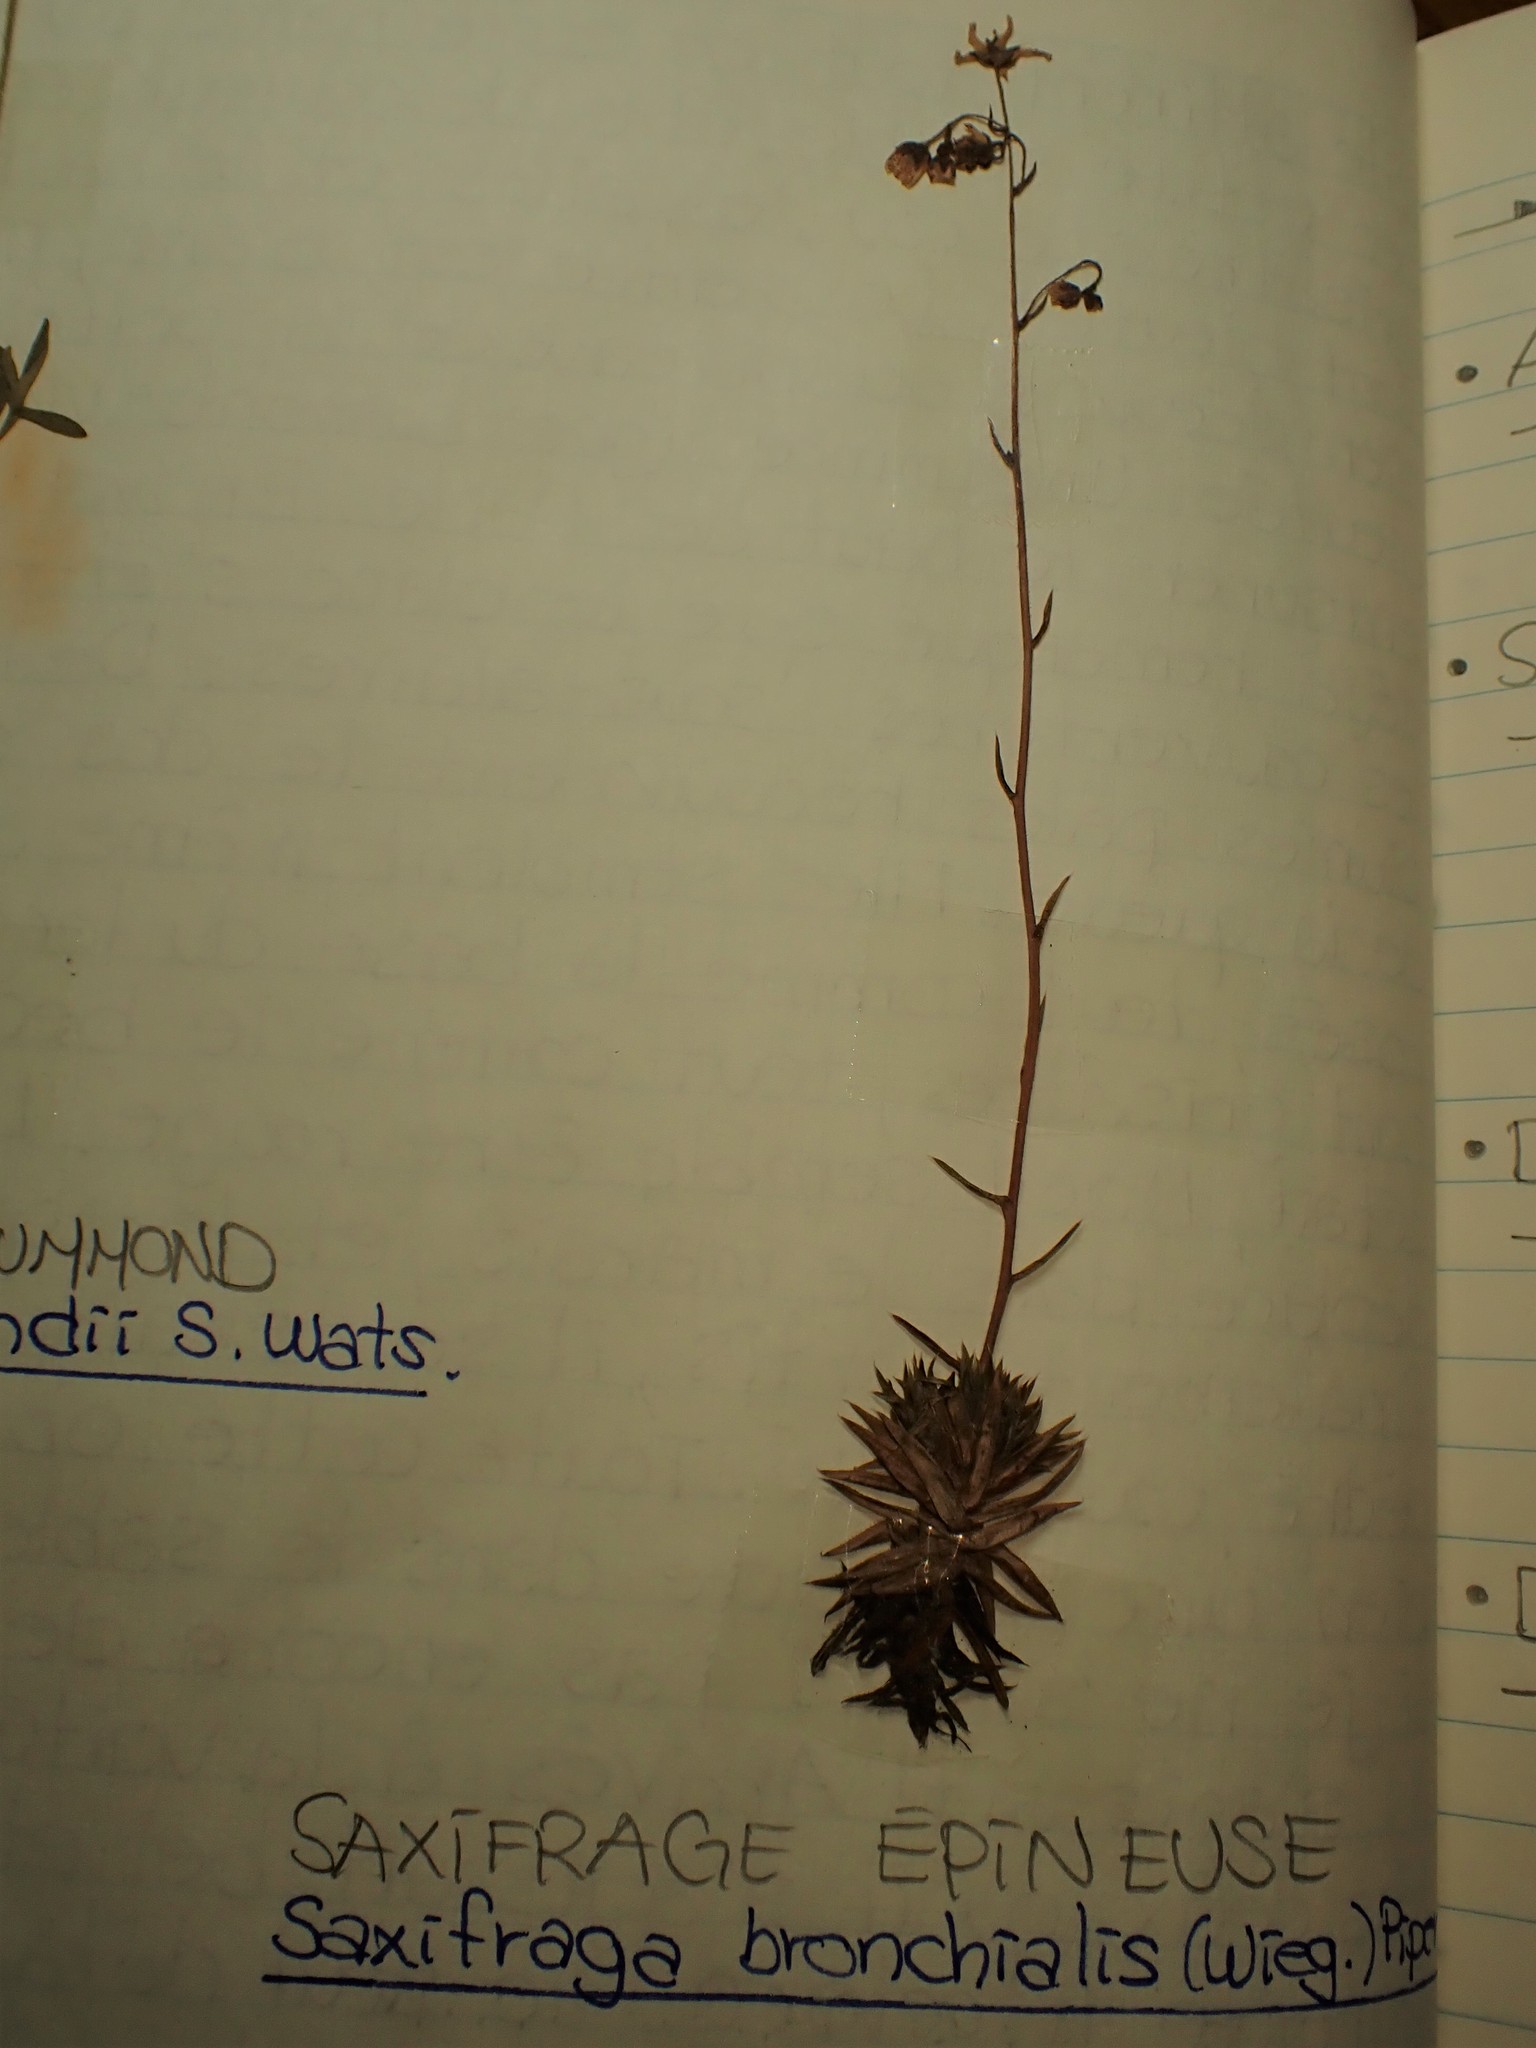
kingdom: Plantae
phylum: Tracheophyta
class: Magnoliopsida
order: Saxifragales
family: Saxifragaceae
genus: Saxifraga
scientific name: Saxifraga bronchialis
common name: Matted saxifrage
